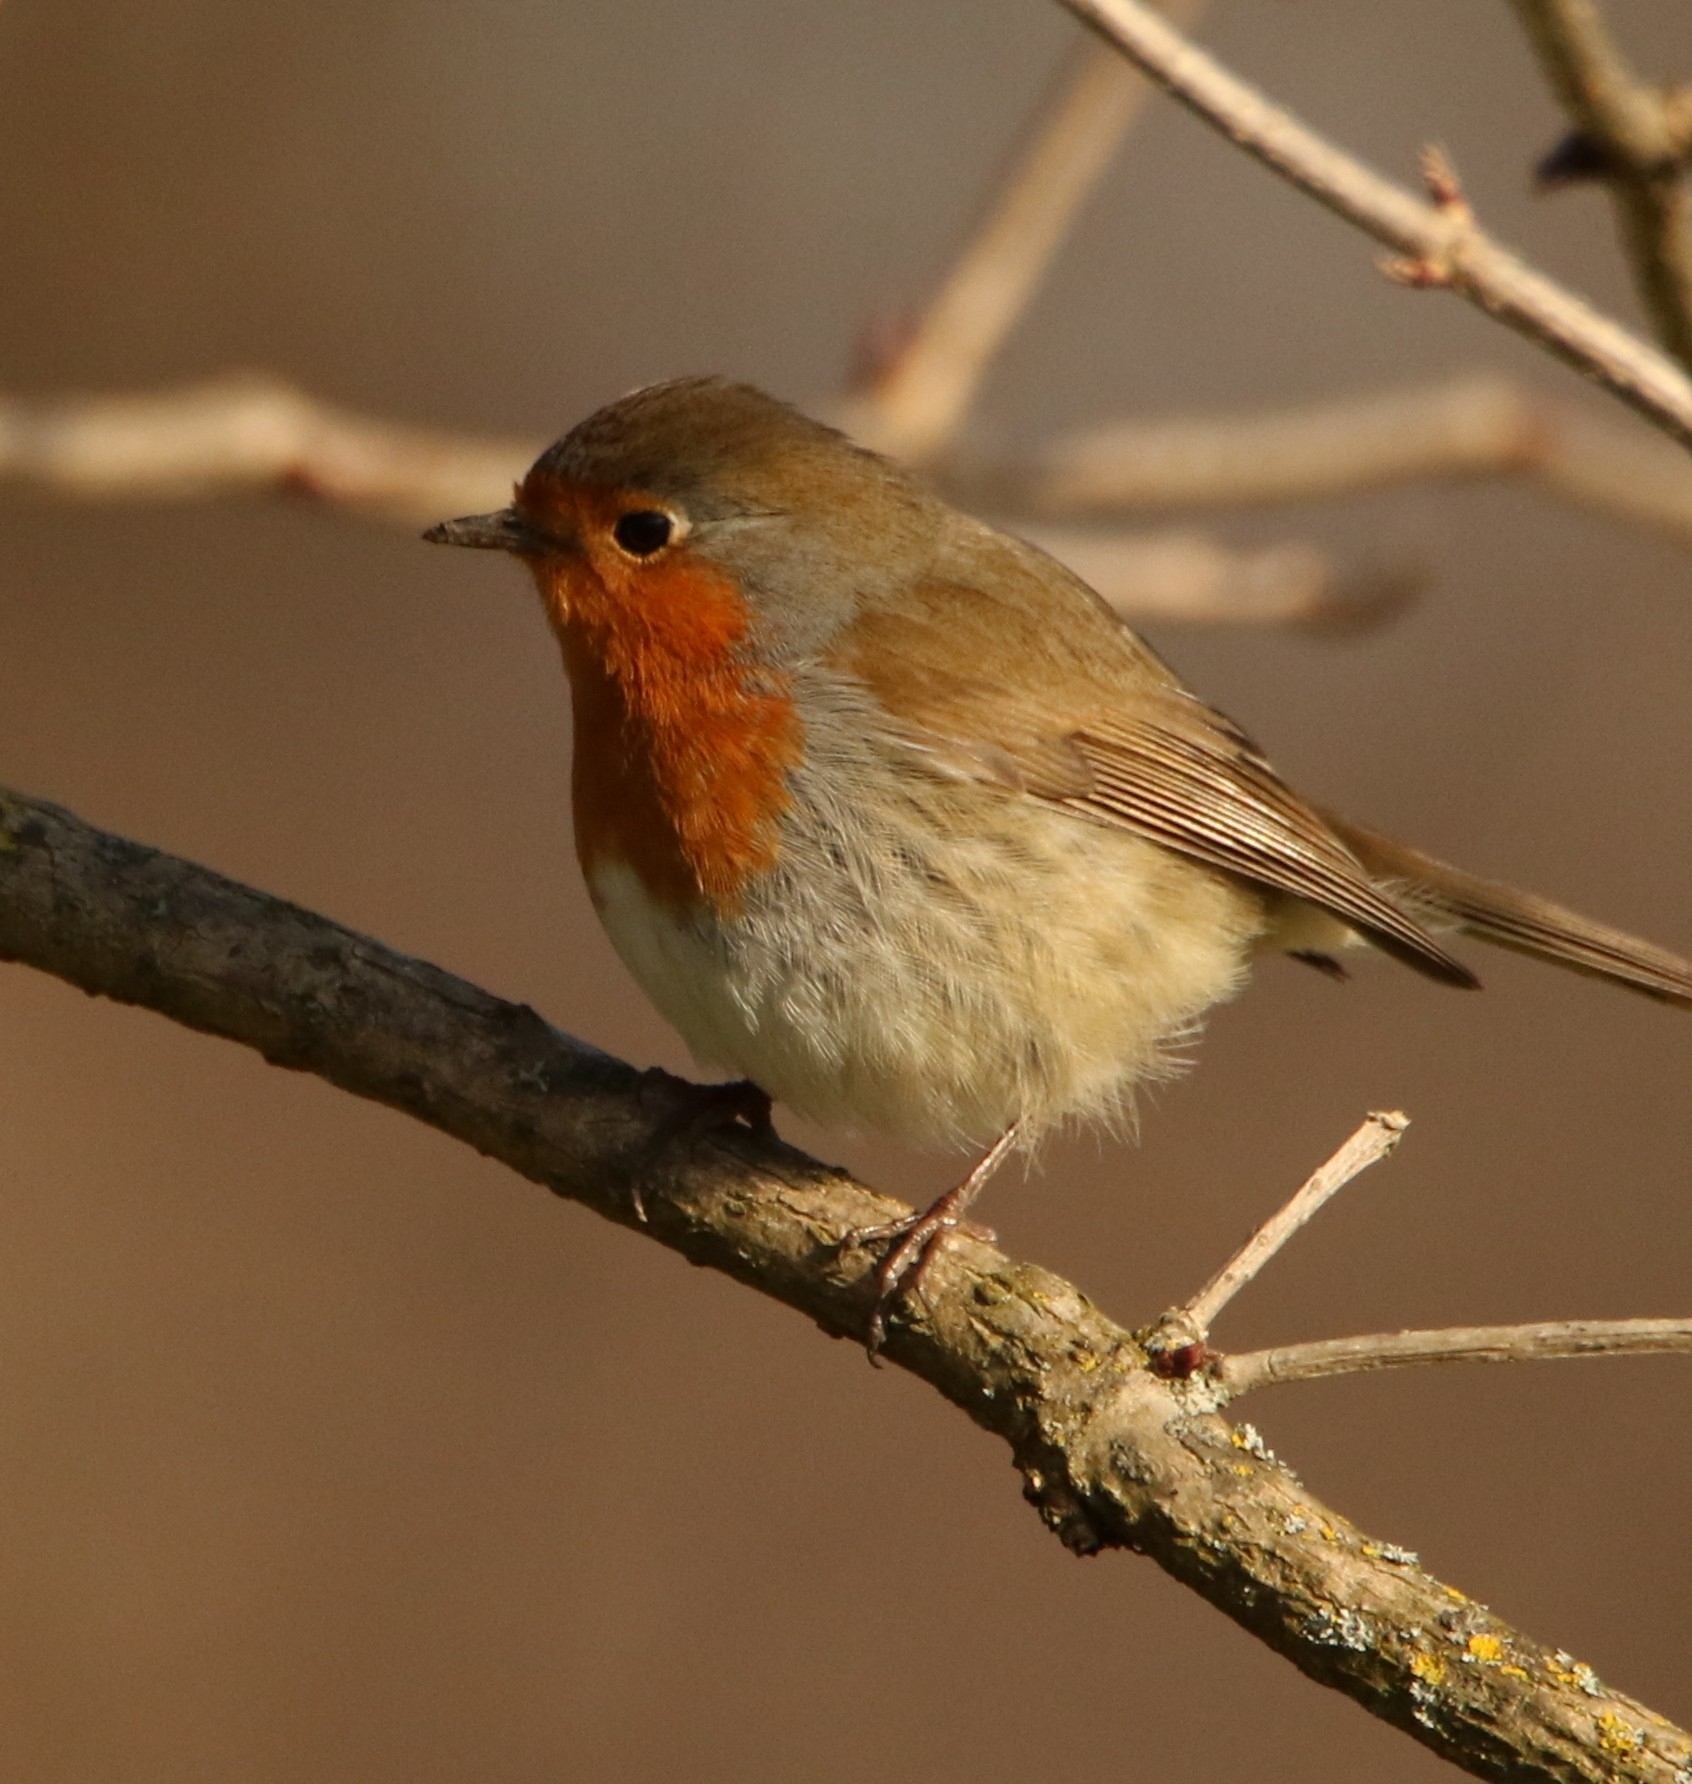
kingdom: Animalia
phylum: Chordata
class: Aves
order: Passeriformes
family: Muscicapidae
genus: Erithacus
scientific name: Erithacus rubecula
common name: European robin
